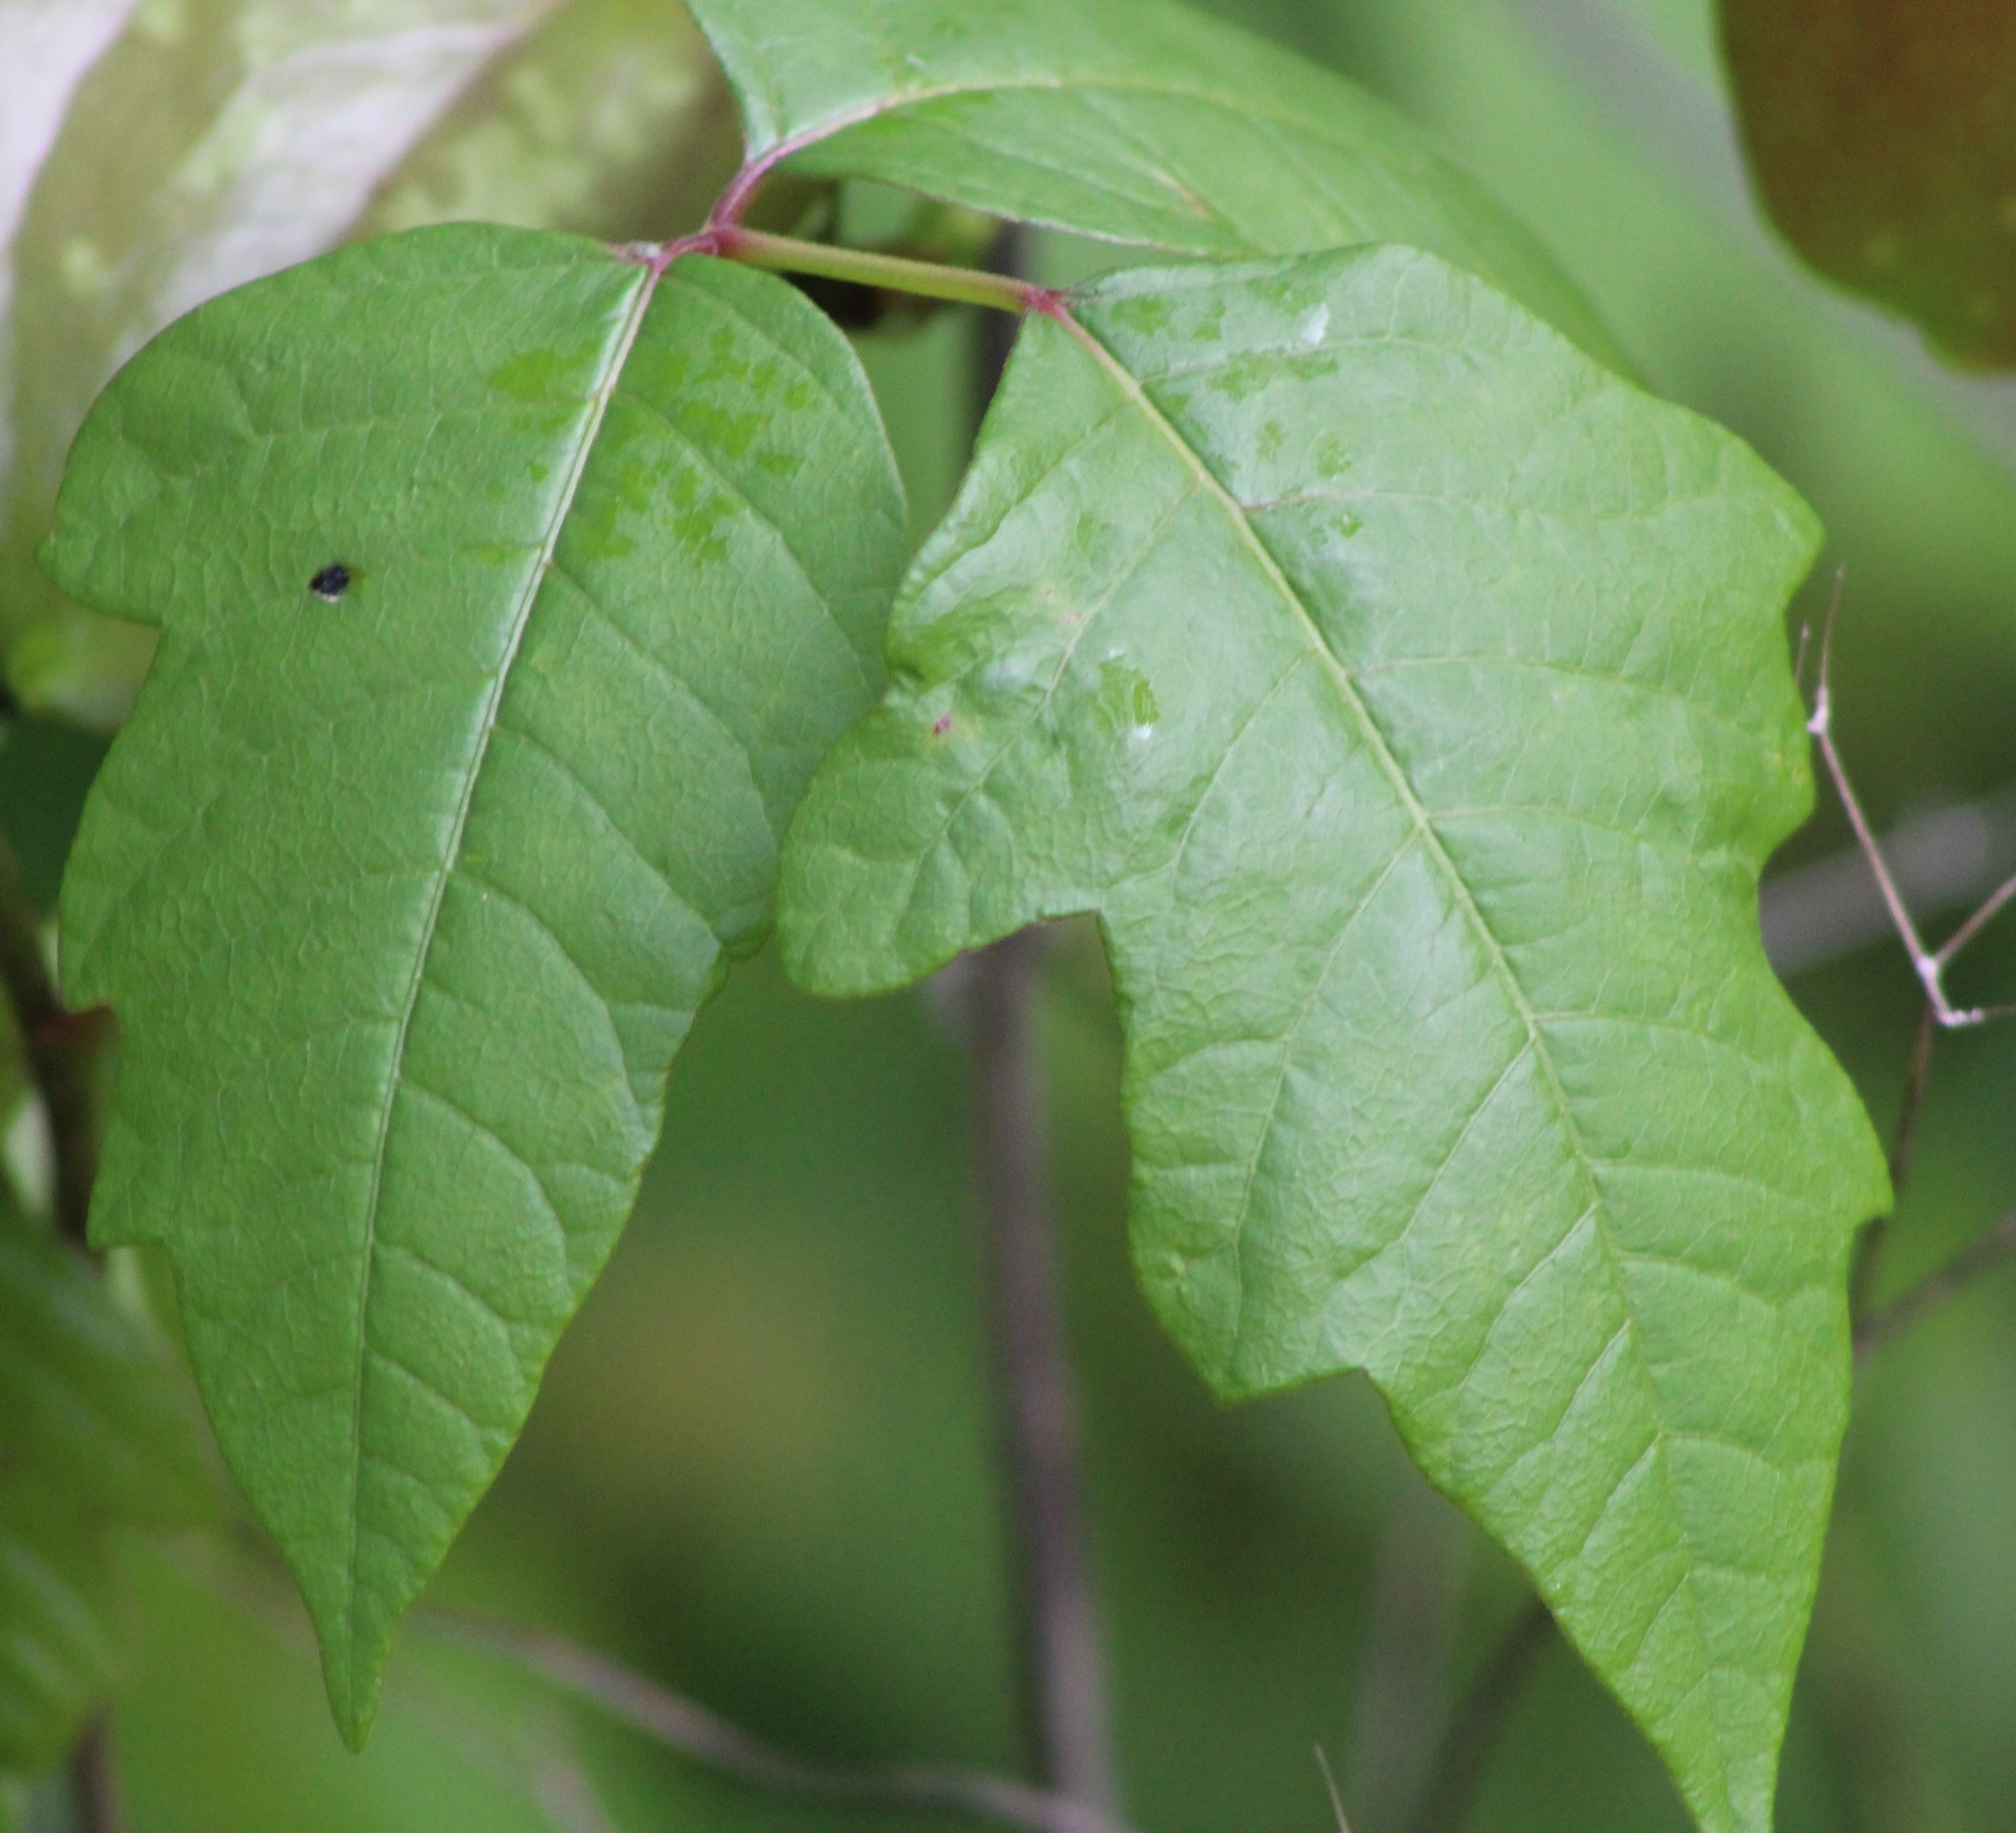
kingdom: Plantae
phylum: Tracheophyta
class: Magnoliopsida
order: Sapindales
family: Anacardiaceae
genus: Toxicodendron
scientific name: Toxicodendron radicans
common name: Poison ivy
